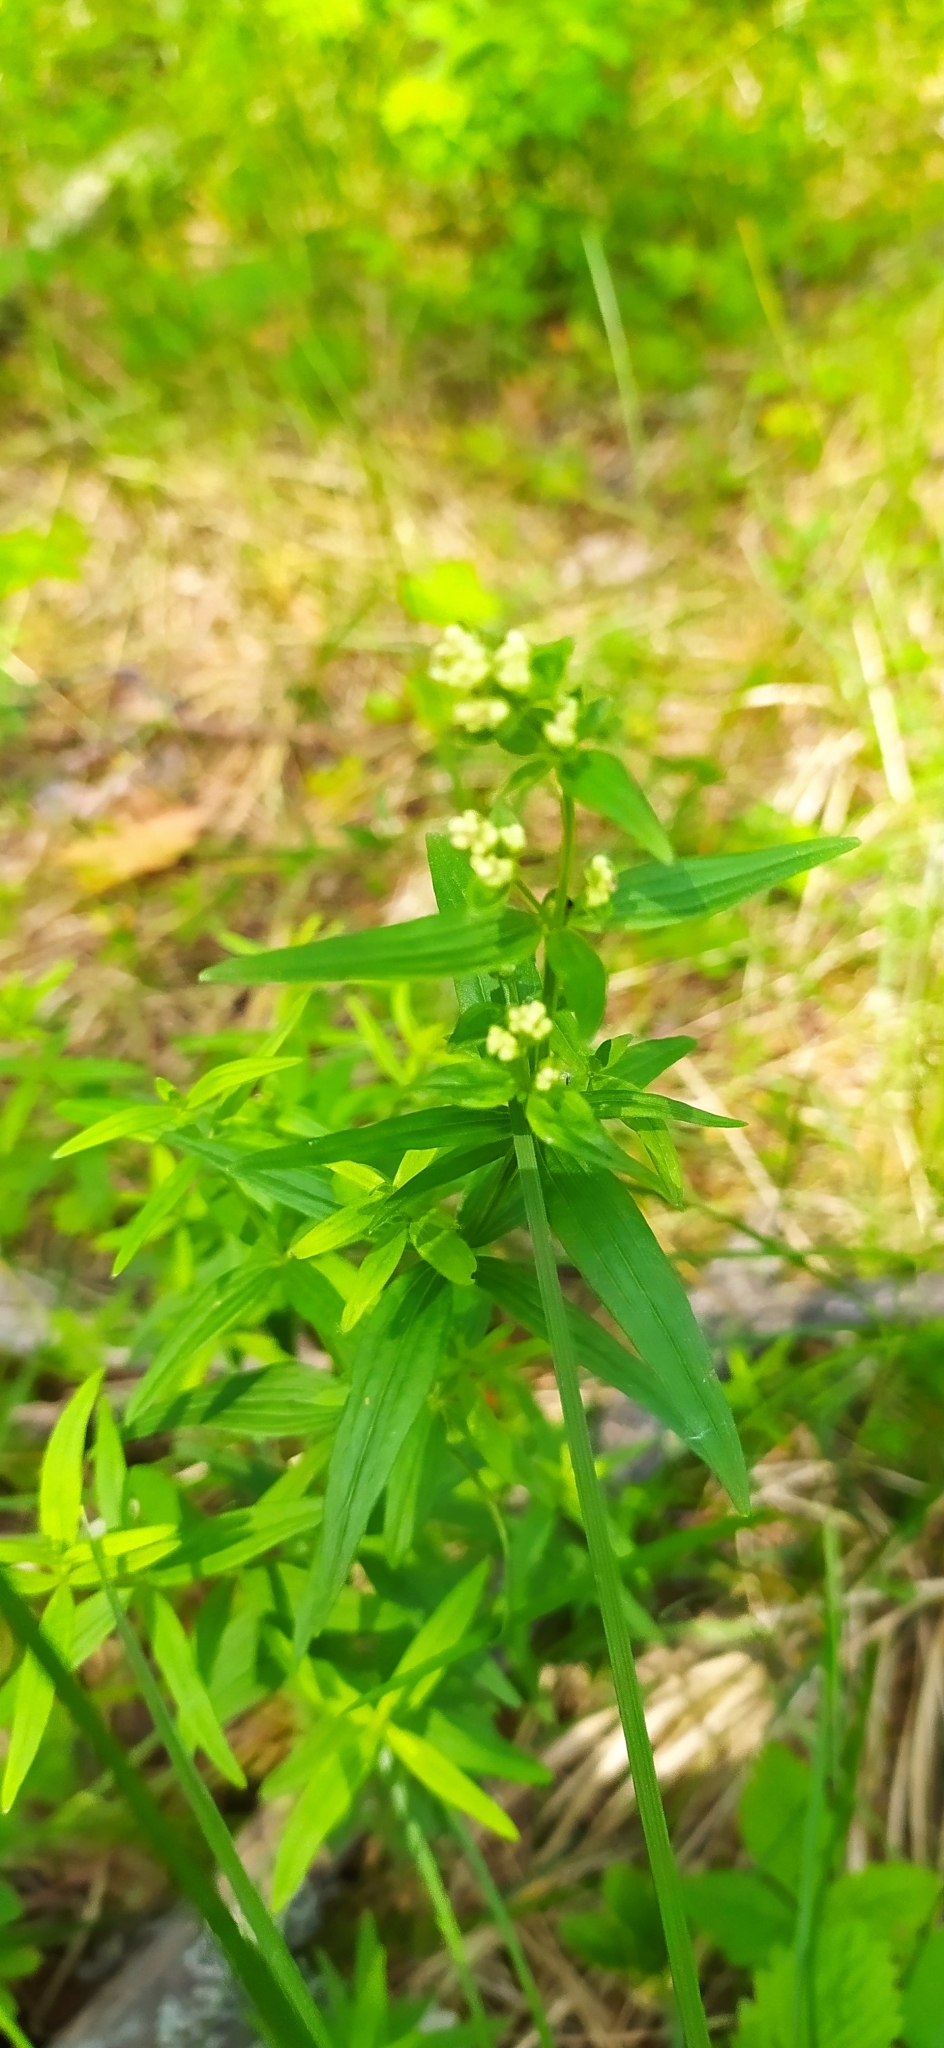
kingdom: Plantae
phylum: Tracheophyta
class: Magnoliopsida
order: Gentianales
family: Rubiaceae
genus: Galium
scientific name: Galium boreale
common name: Northern bedstraw
